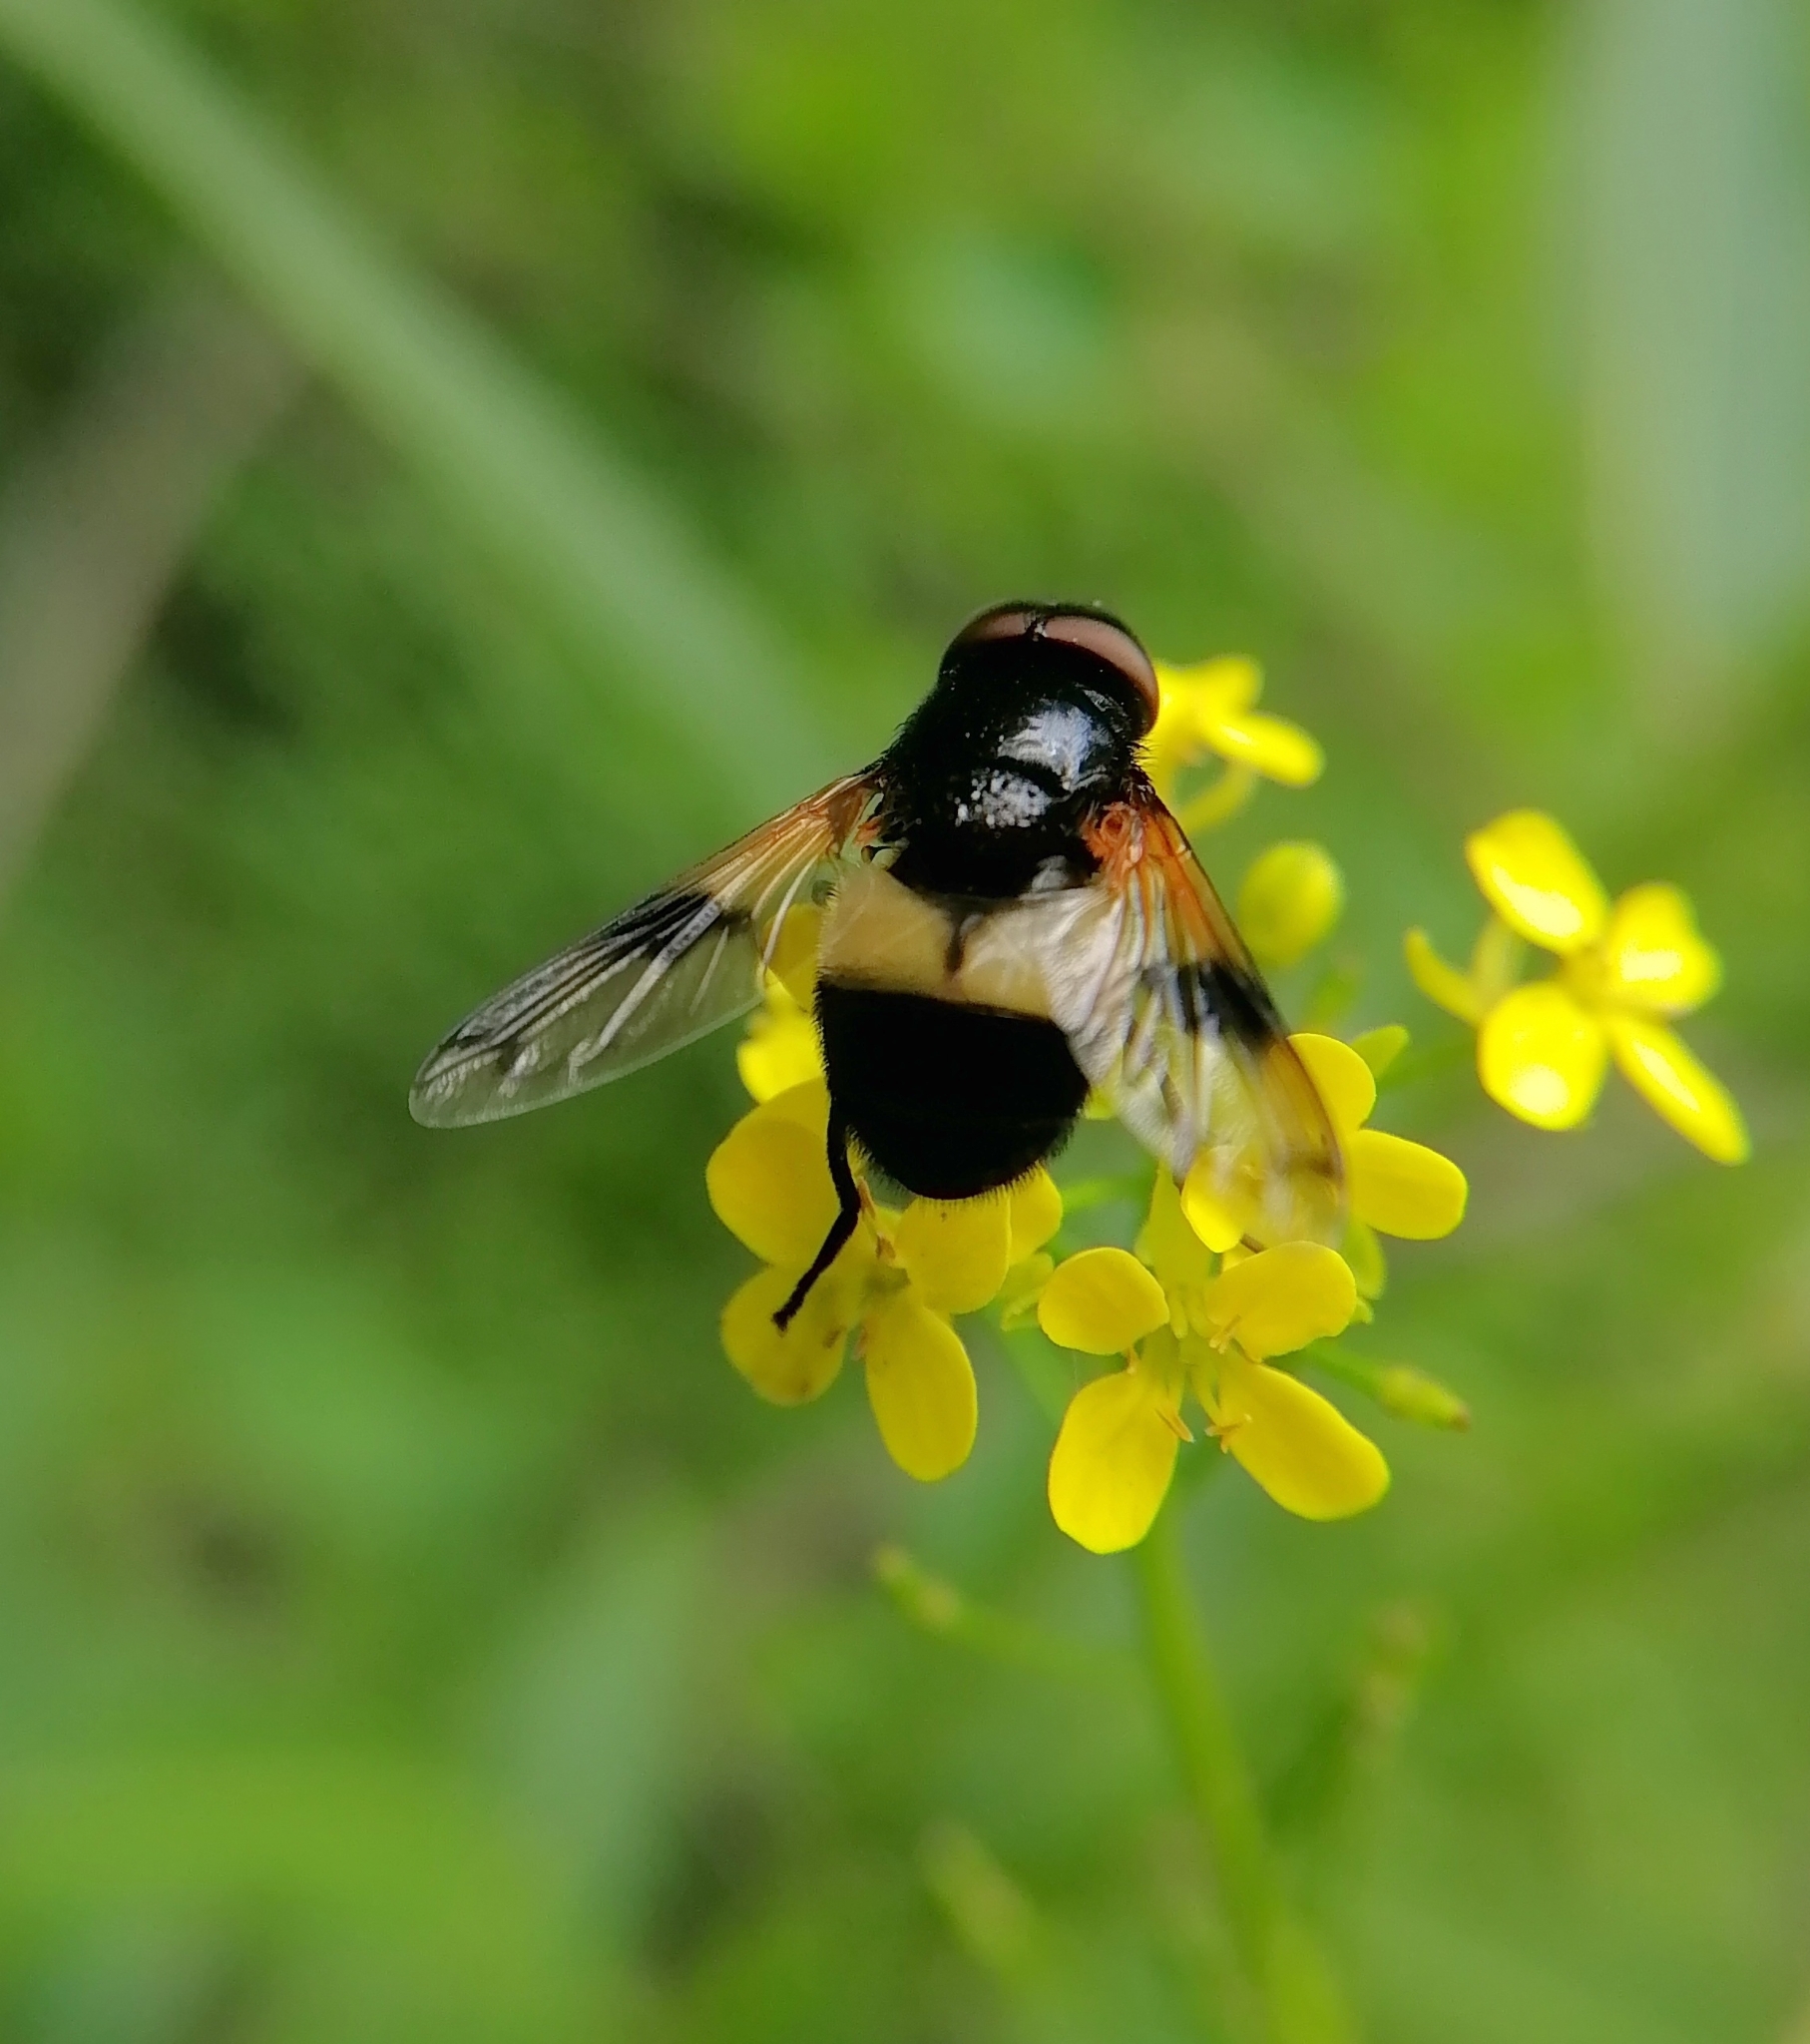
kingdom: Animalia
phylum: Arthropoda
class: Insecta
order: Diptera
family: Syrphidae
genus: Volucella
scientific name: Volucella pellucens
